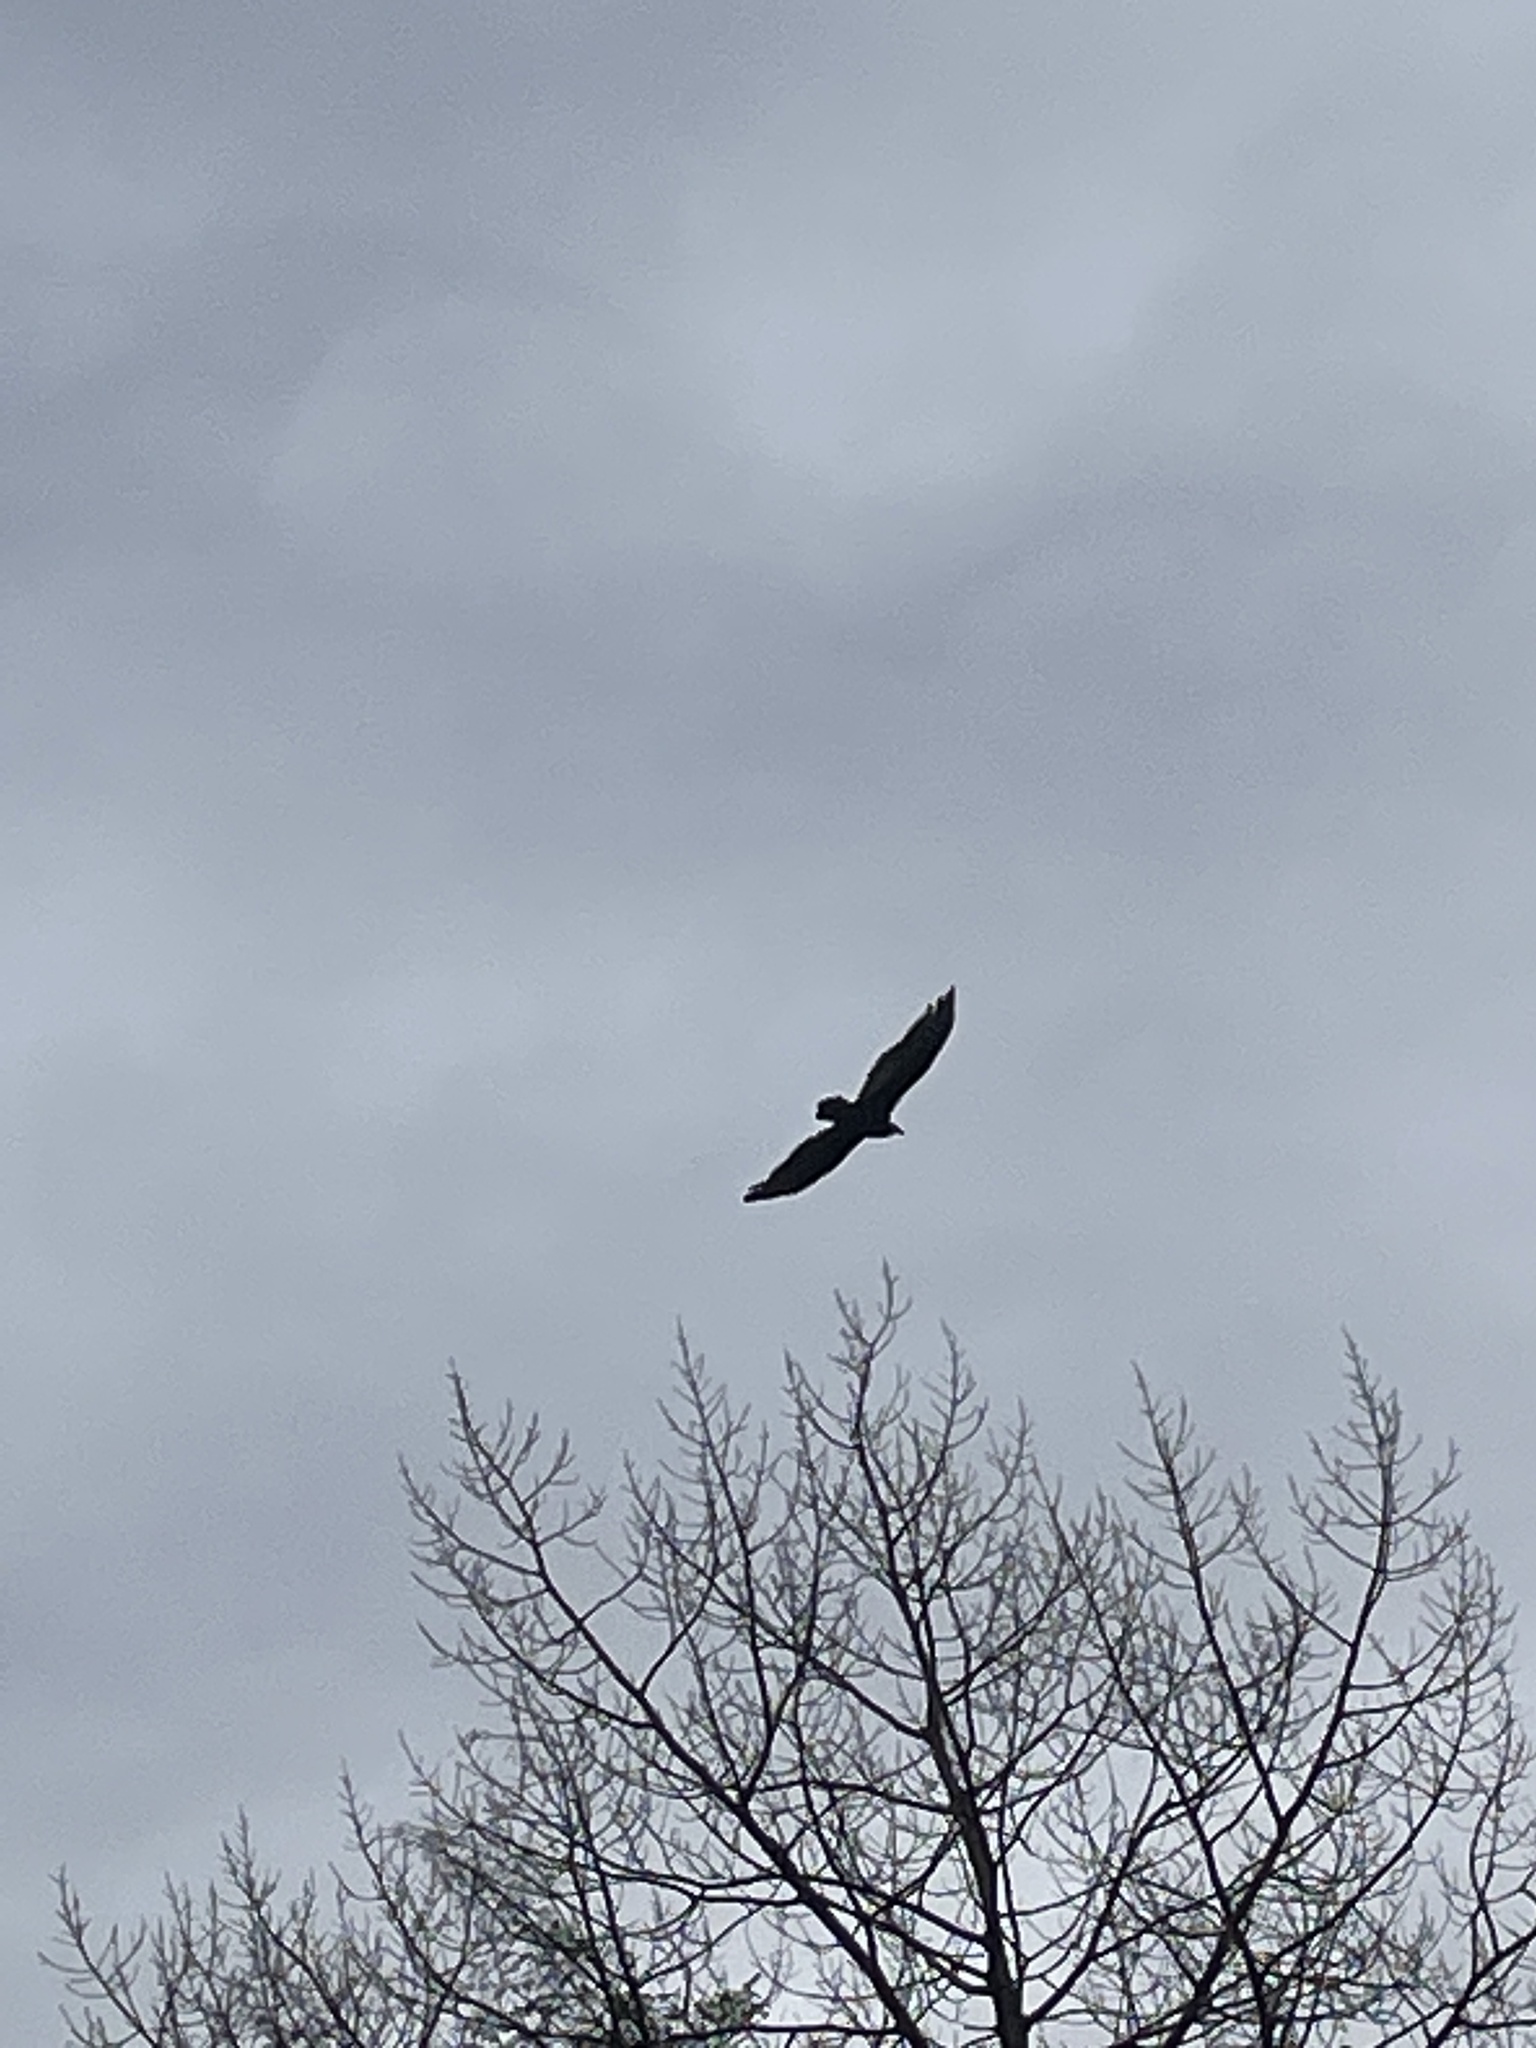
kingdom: Animalia
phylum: Chordata
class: Aves
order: Accipitriformes
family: Cathartidae
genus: Cathartes
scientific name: Cathartes aura
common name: Turkey vulture
